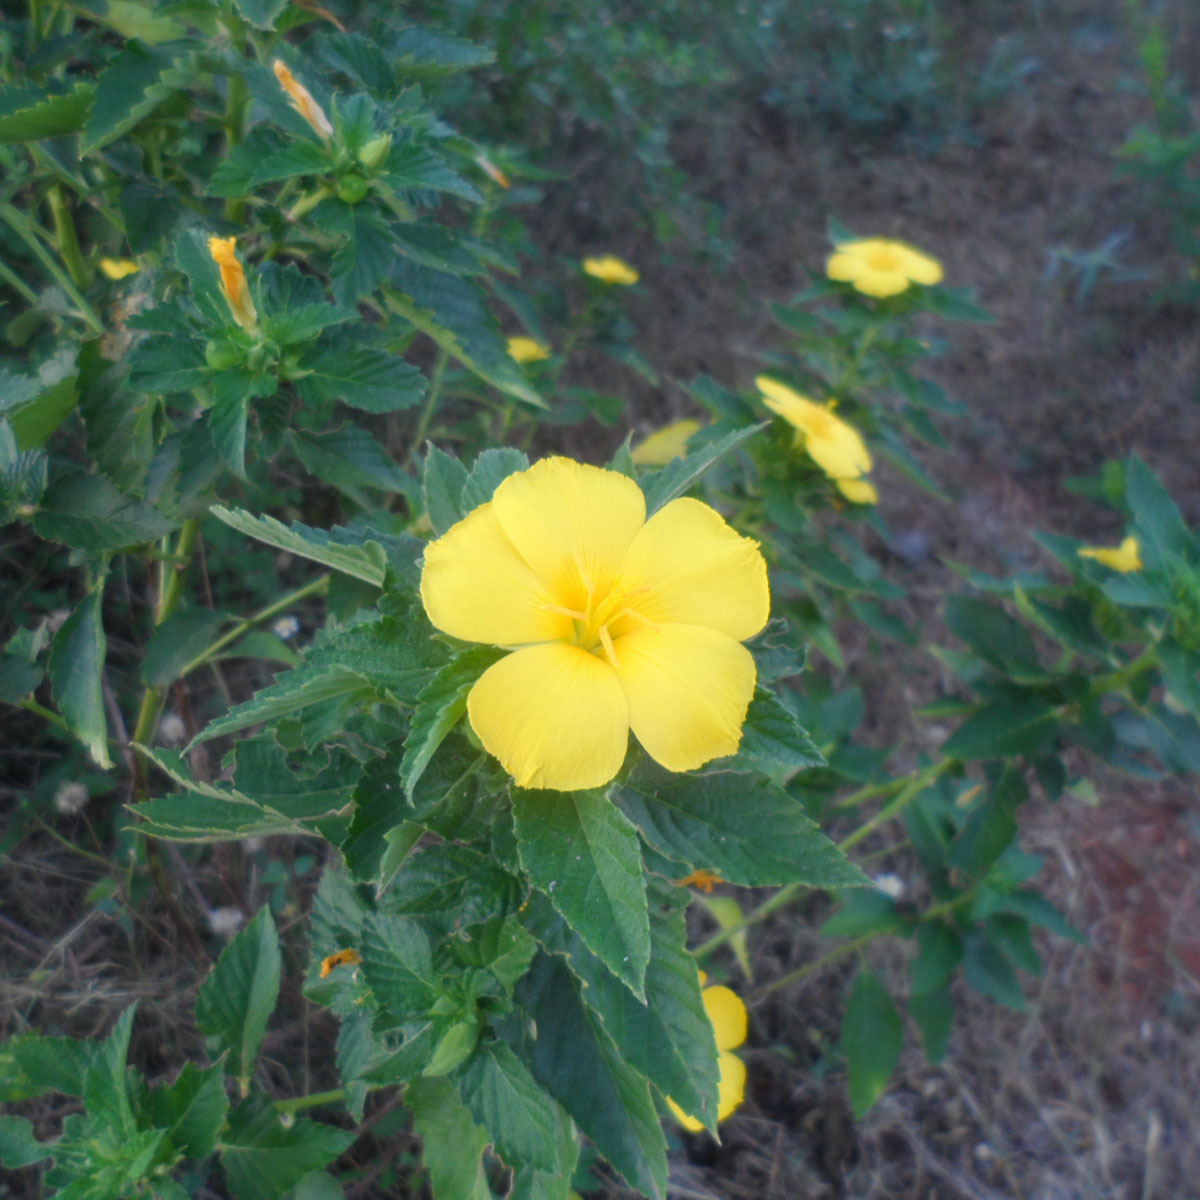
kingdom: Plantae
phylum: Tracheophyta
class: Magnoliopsida
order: Malpighiales
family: Turneraceae
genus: Turnera
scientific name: Turnera ulmifolia
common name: Ramgoat dashalong
